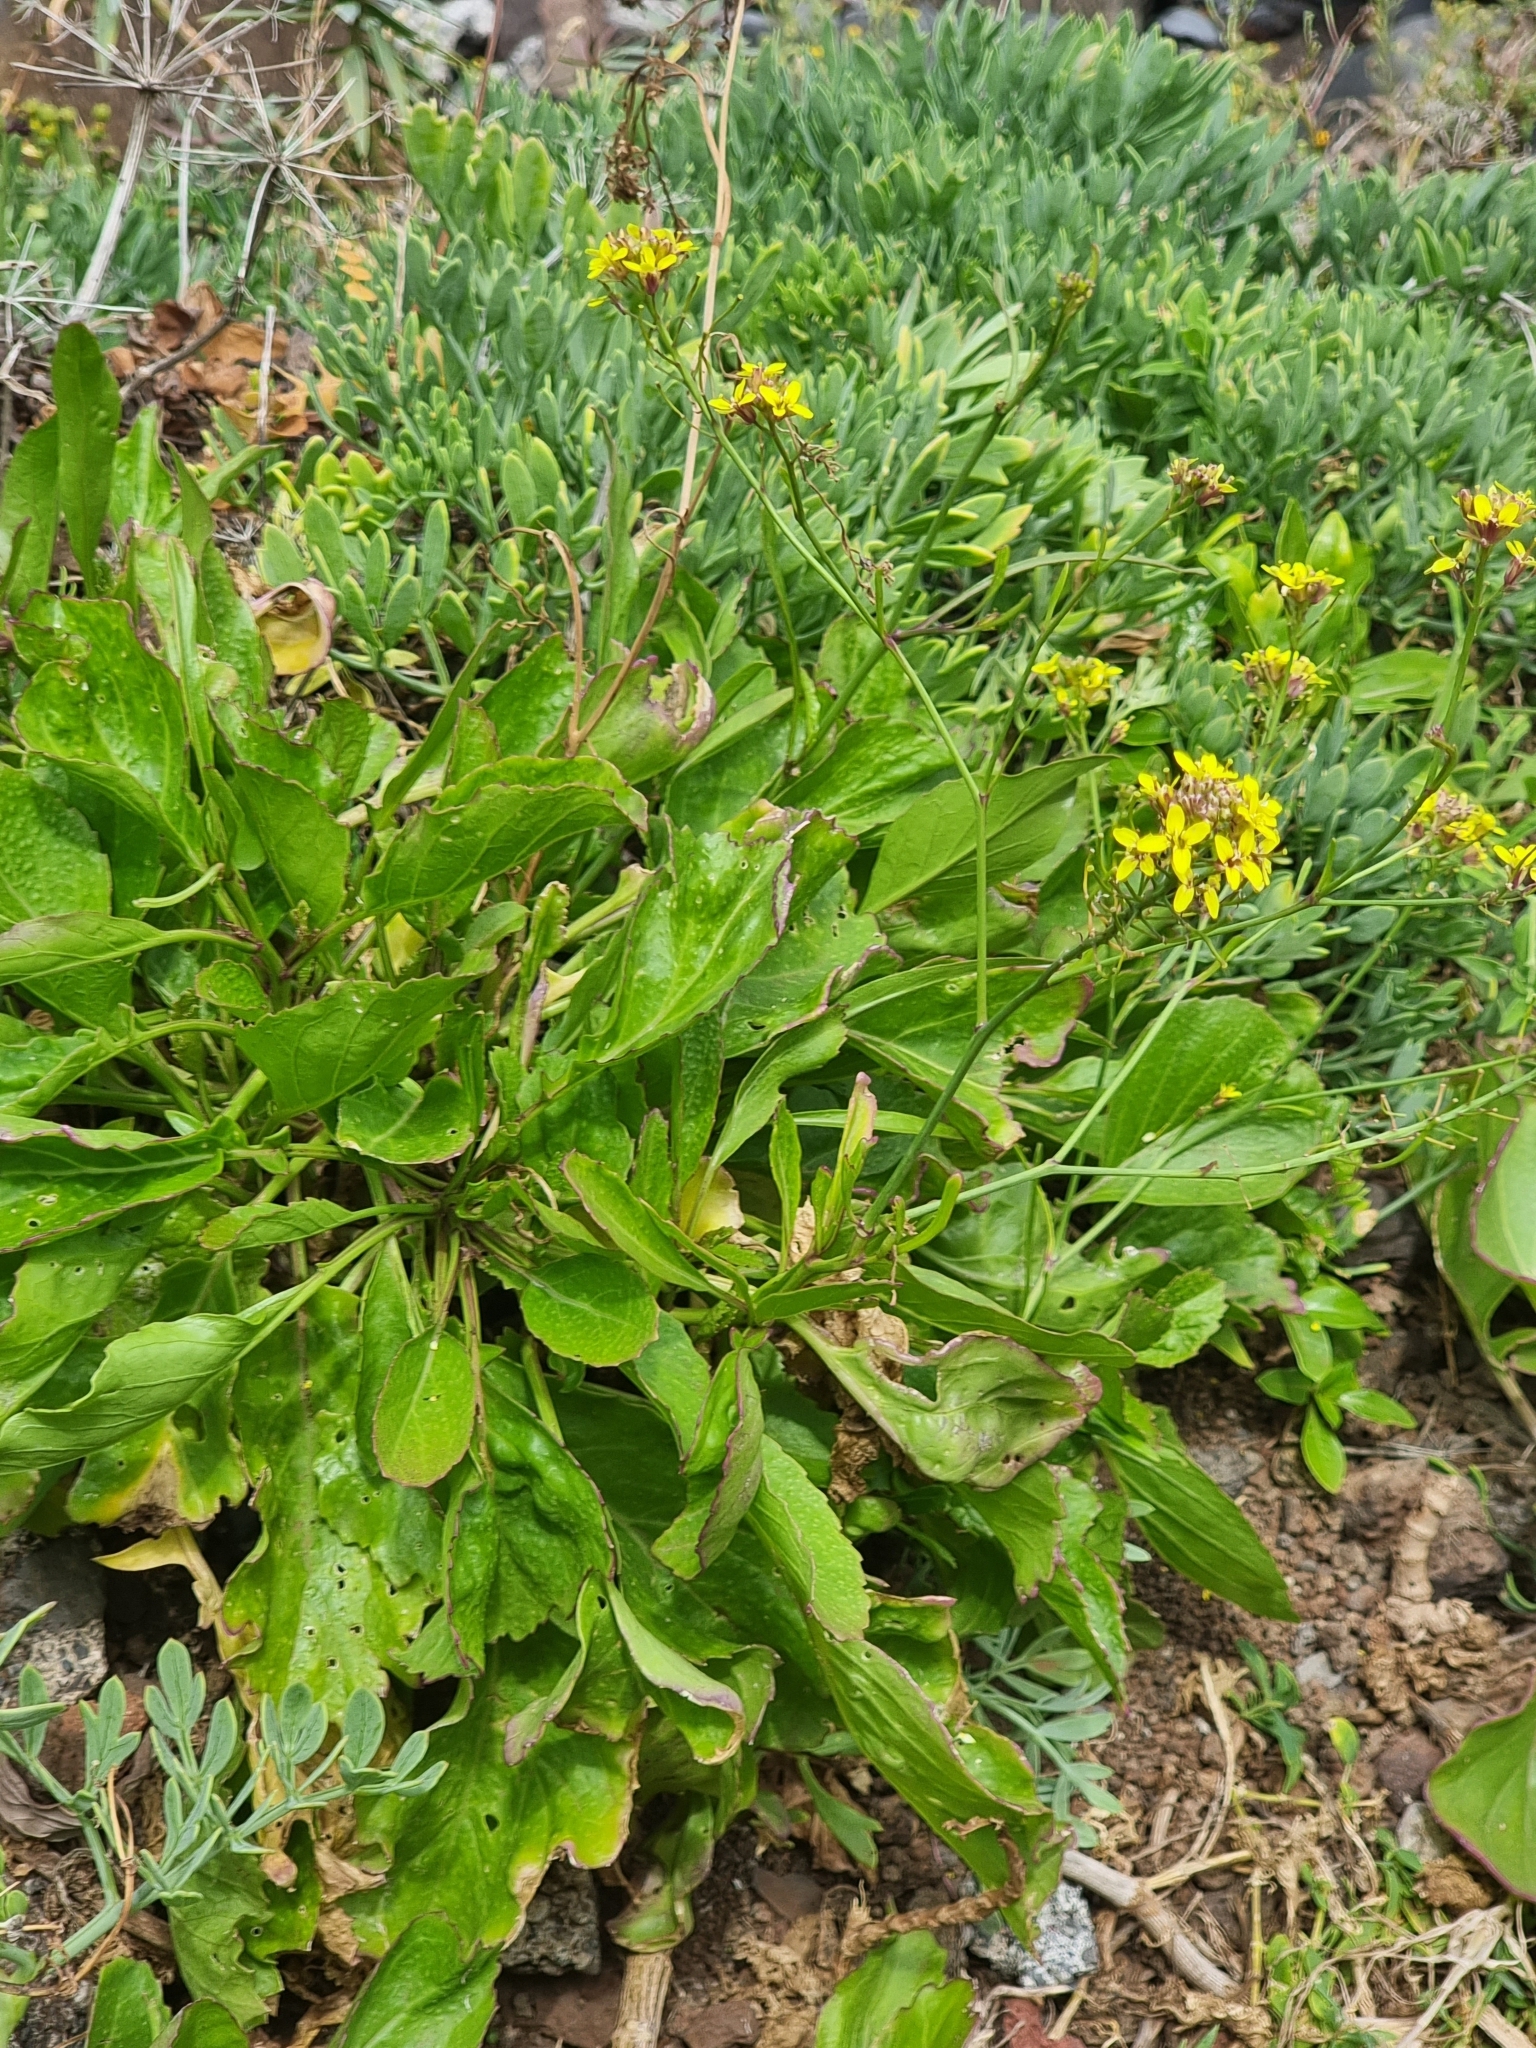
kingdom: Plantae
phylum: Tracheophyta
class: Magnoliopsida
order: Brassicales
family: Brassicaceae
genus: Sinapidendron
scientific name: Sinapidendron rupestre
